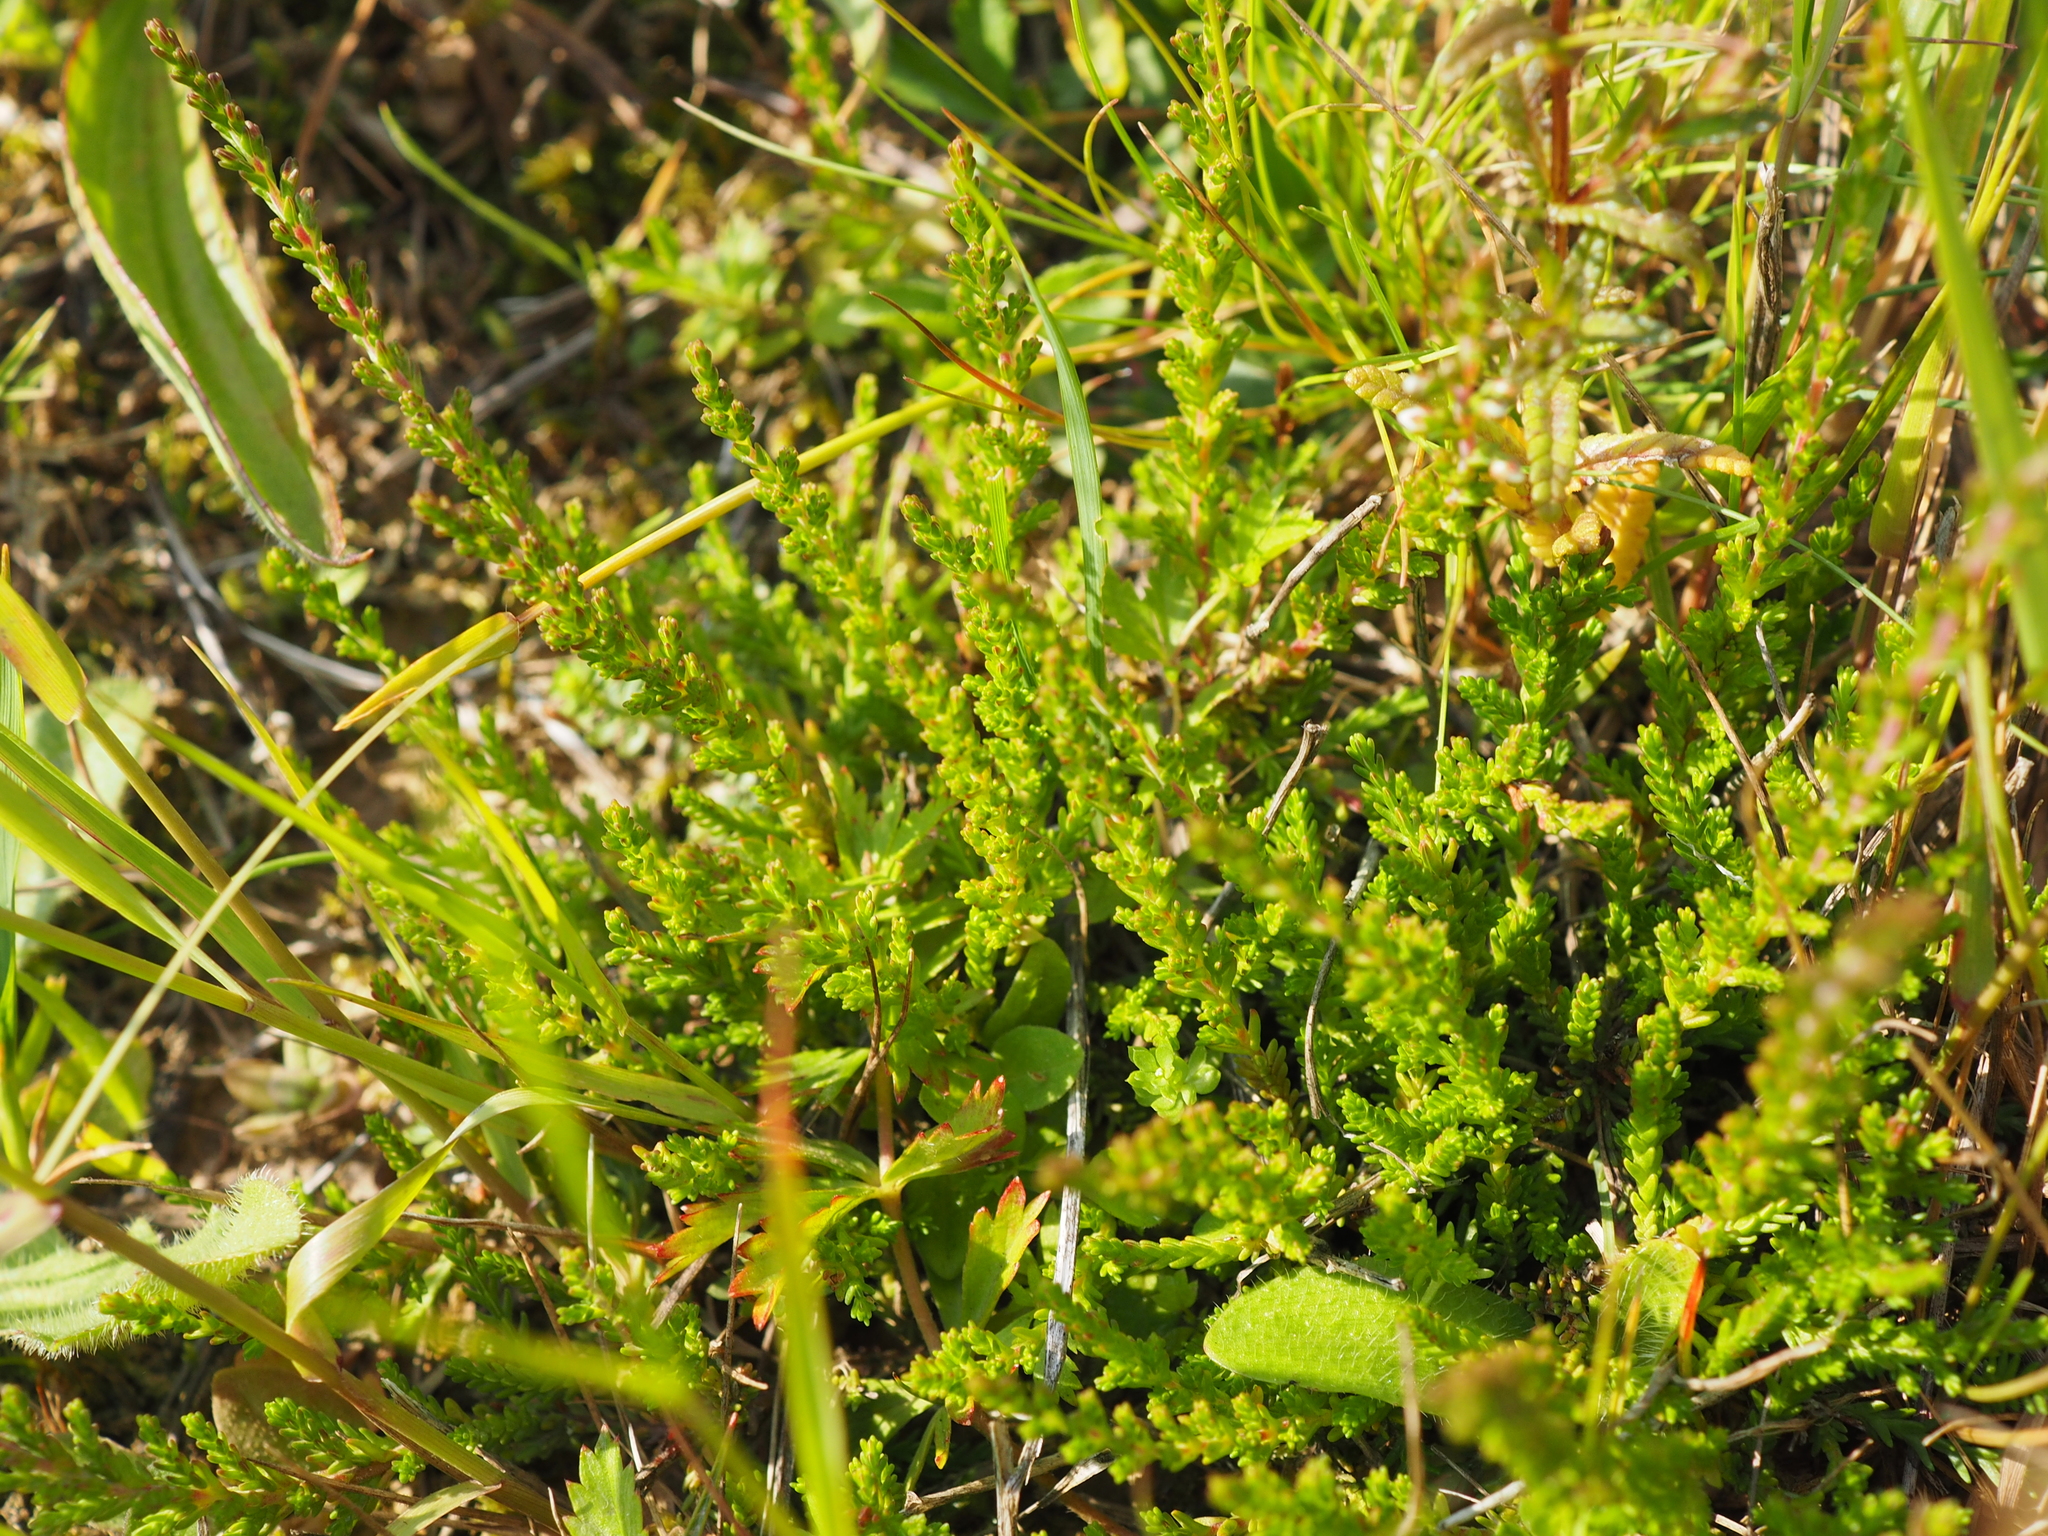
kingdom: Plantae
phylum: Tracheophyta
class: Magnoliopsida
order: Ericales
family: Ericaceae
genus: Calluna
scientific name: Calluna vulgaris
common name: Heather
